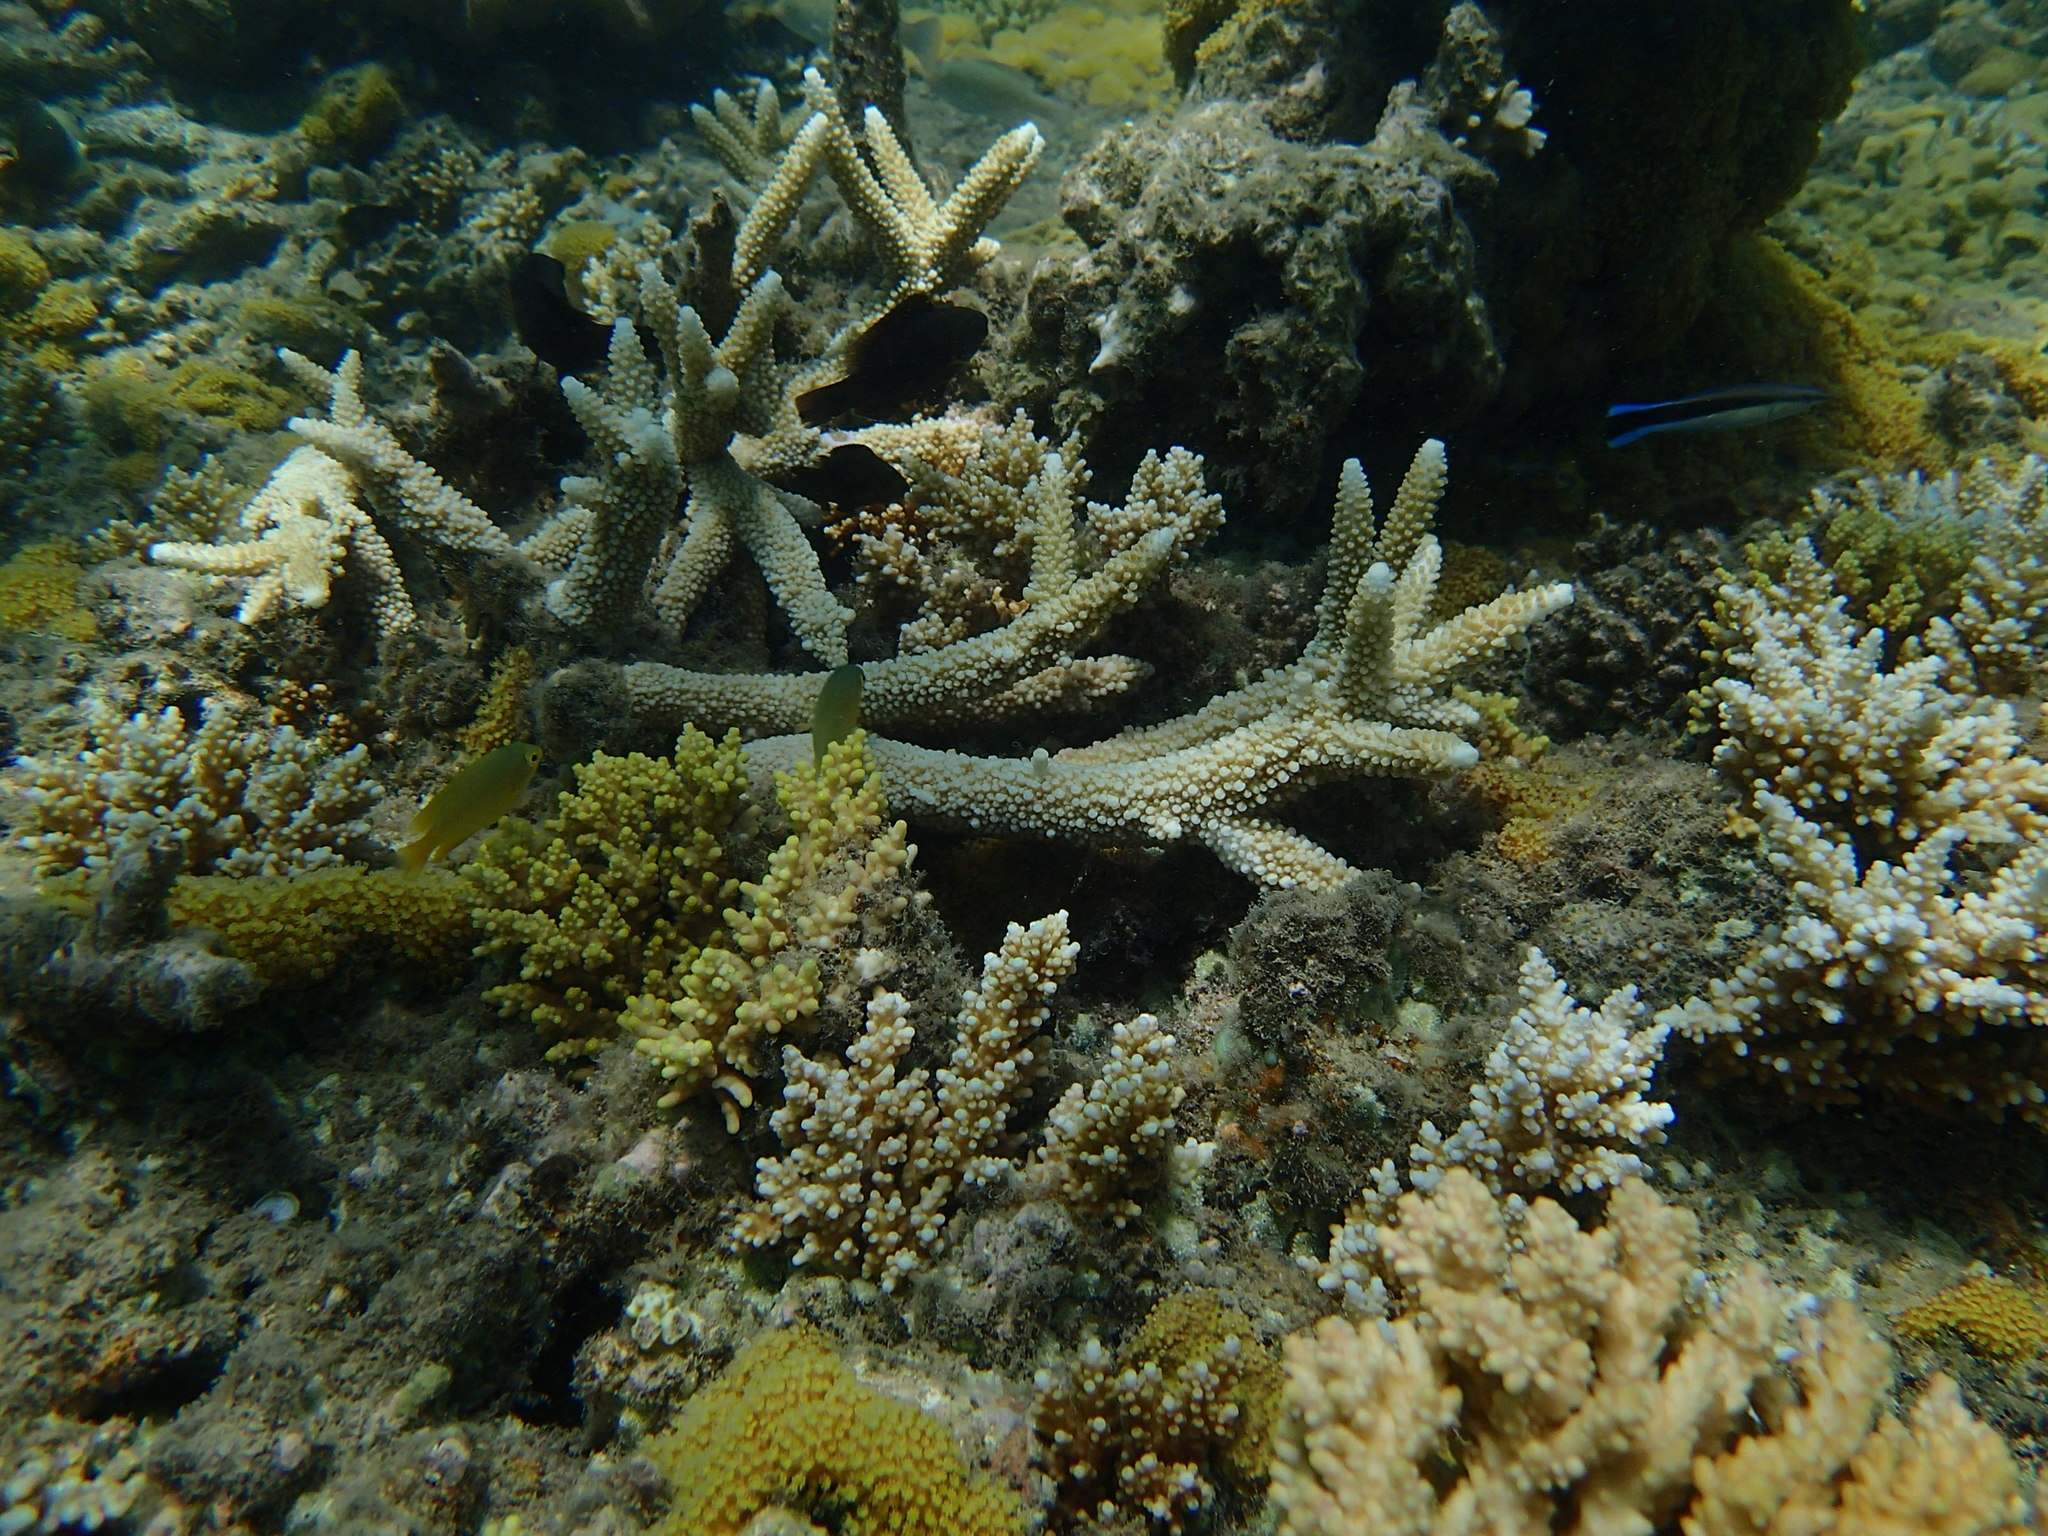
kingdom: Animalia
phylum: Chordata
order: Perciformes
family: Labridae
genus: Labroides
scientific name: Labroides dimidiatus
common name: Blue diesel wrasse
